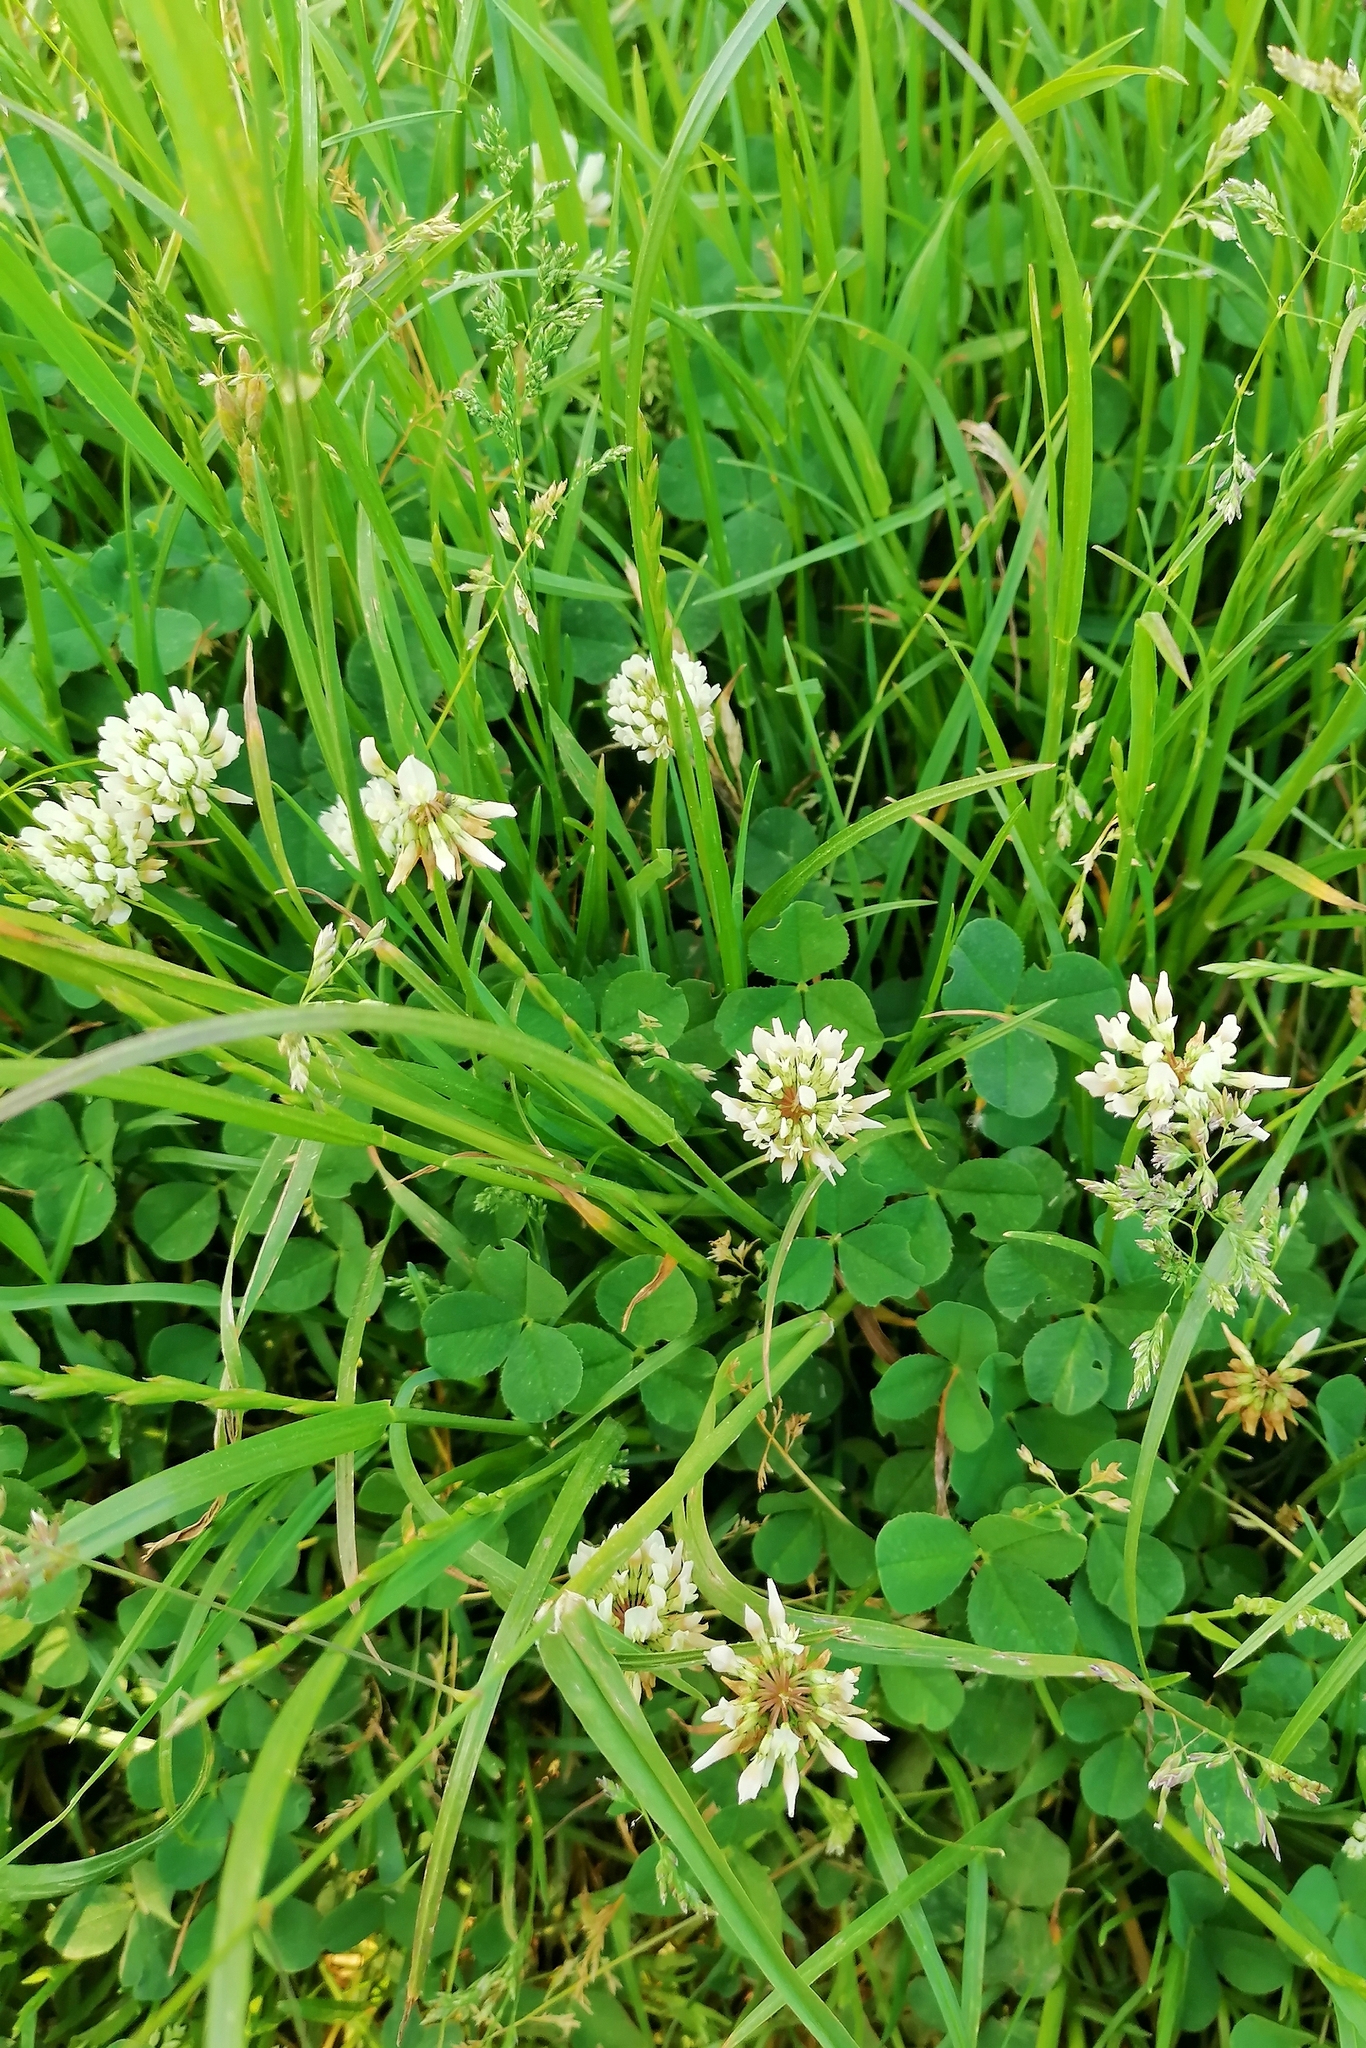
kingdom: Plantae
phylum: Tracheophyta
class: Magnoliopsida
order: Fabales
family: Fabaceae
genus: Trifolium
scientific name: Trifolium repens
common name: White clover
